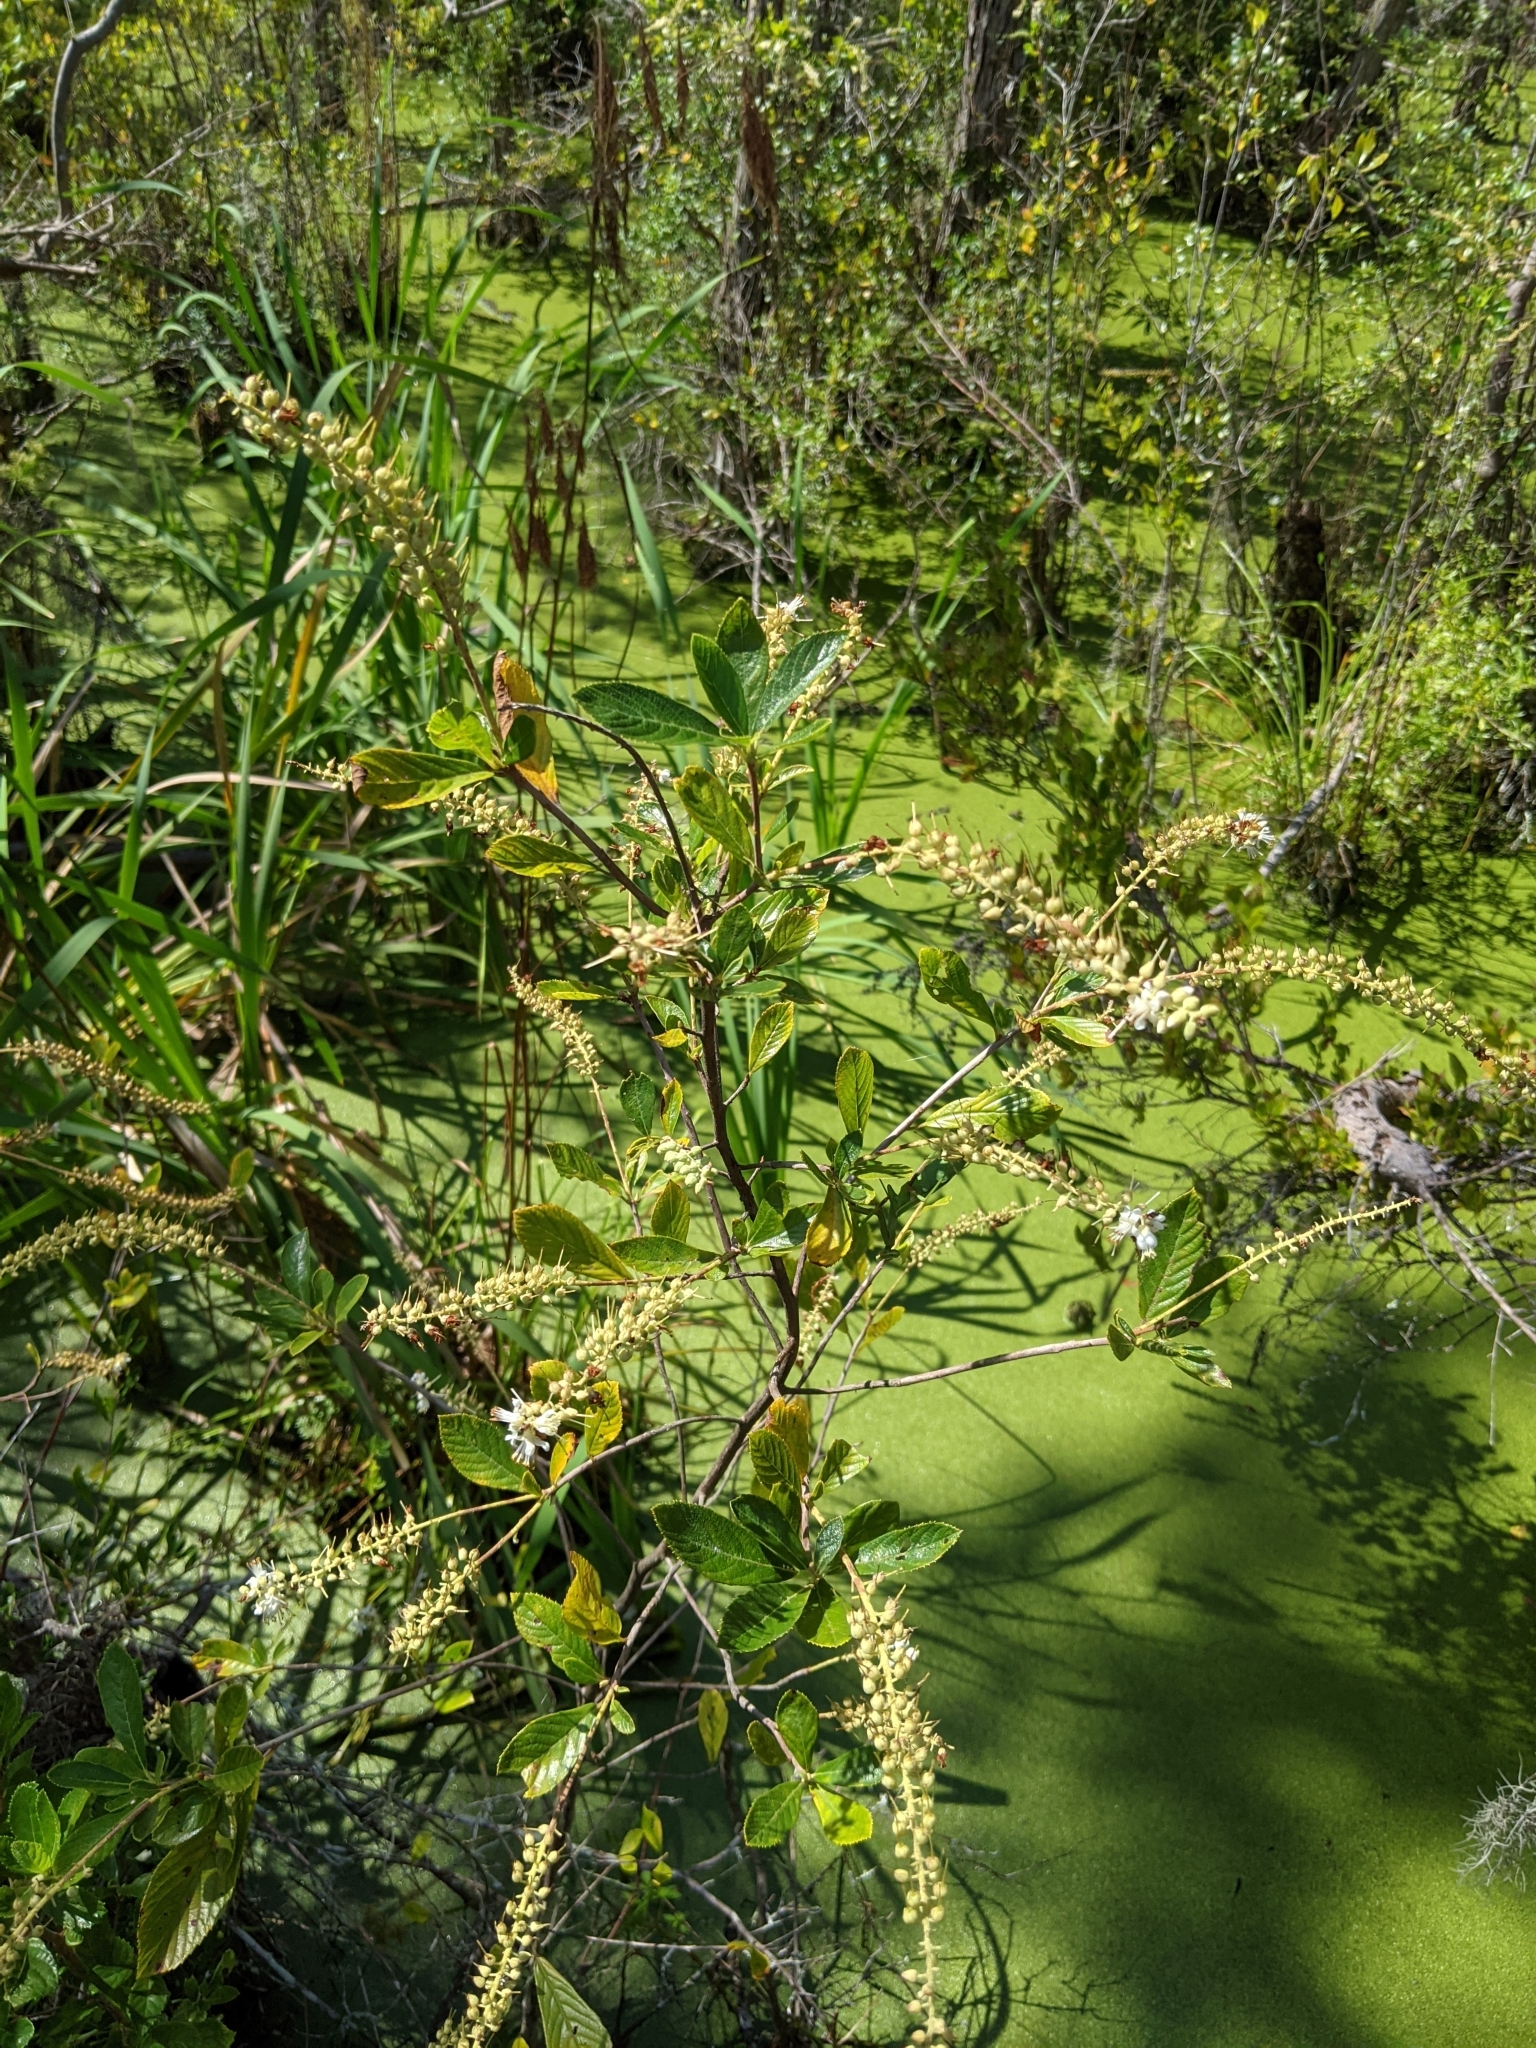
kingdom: Plantae
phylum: Tracheophyta
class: Magnoliopsida
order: Ericales
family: Clethraceae
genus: Clethra
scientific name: Clethra alnifolia
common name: Sweet pepperbush
